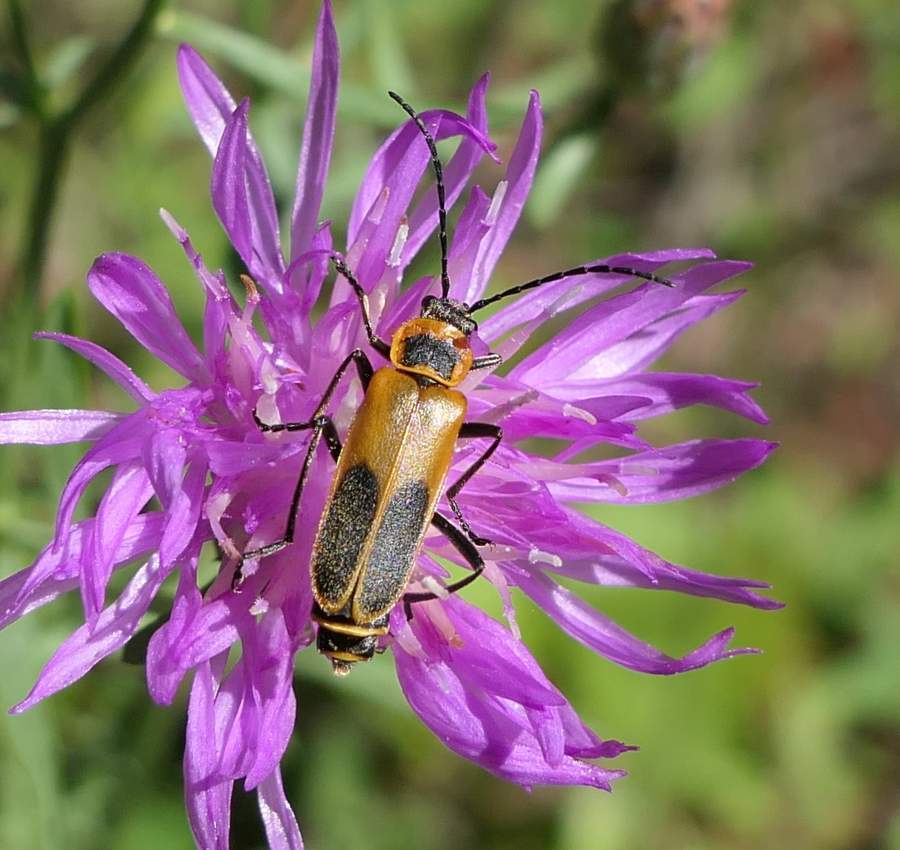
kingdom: Animalia
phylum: Arthropoda
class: Insecta
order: Coleoptera
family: Cantharidae
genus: Chauliognathus
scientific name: Chauliognathus pensylvanicus
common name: Goldenrod soldier beetle
